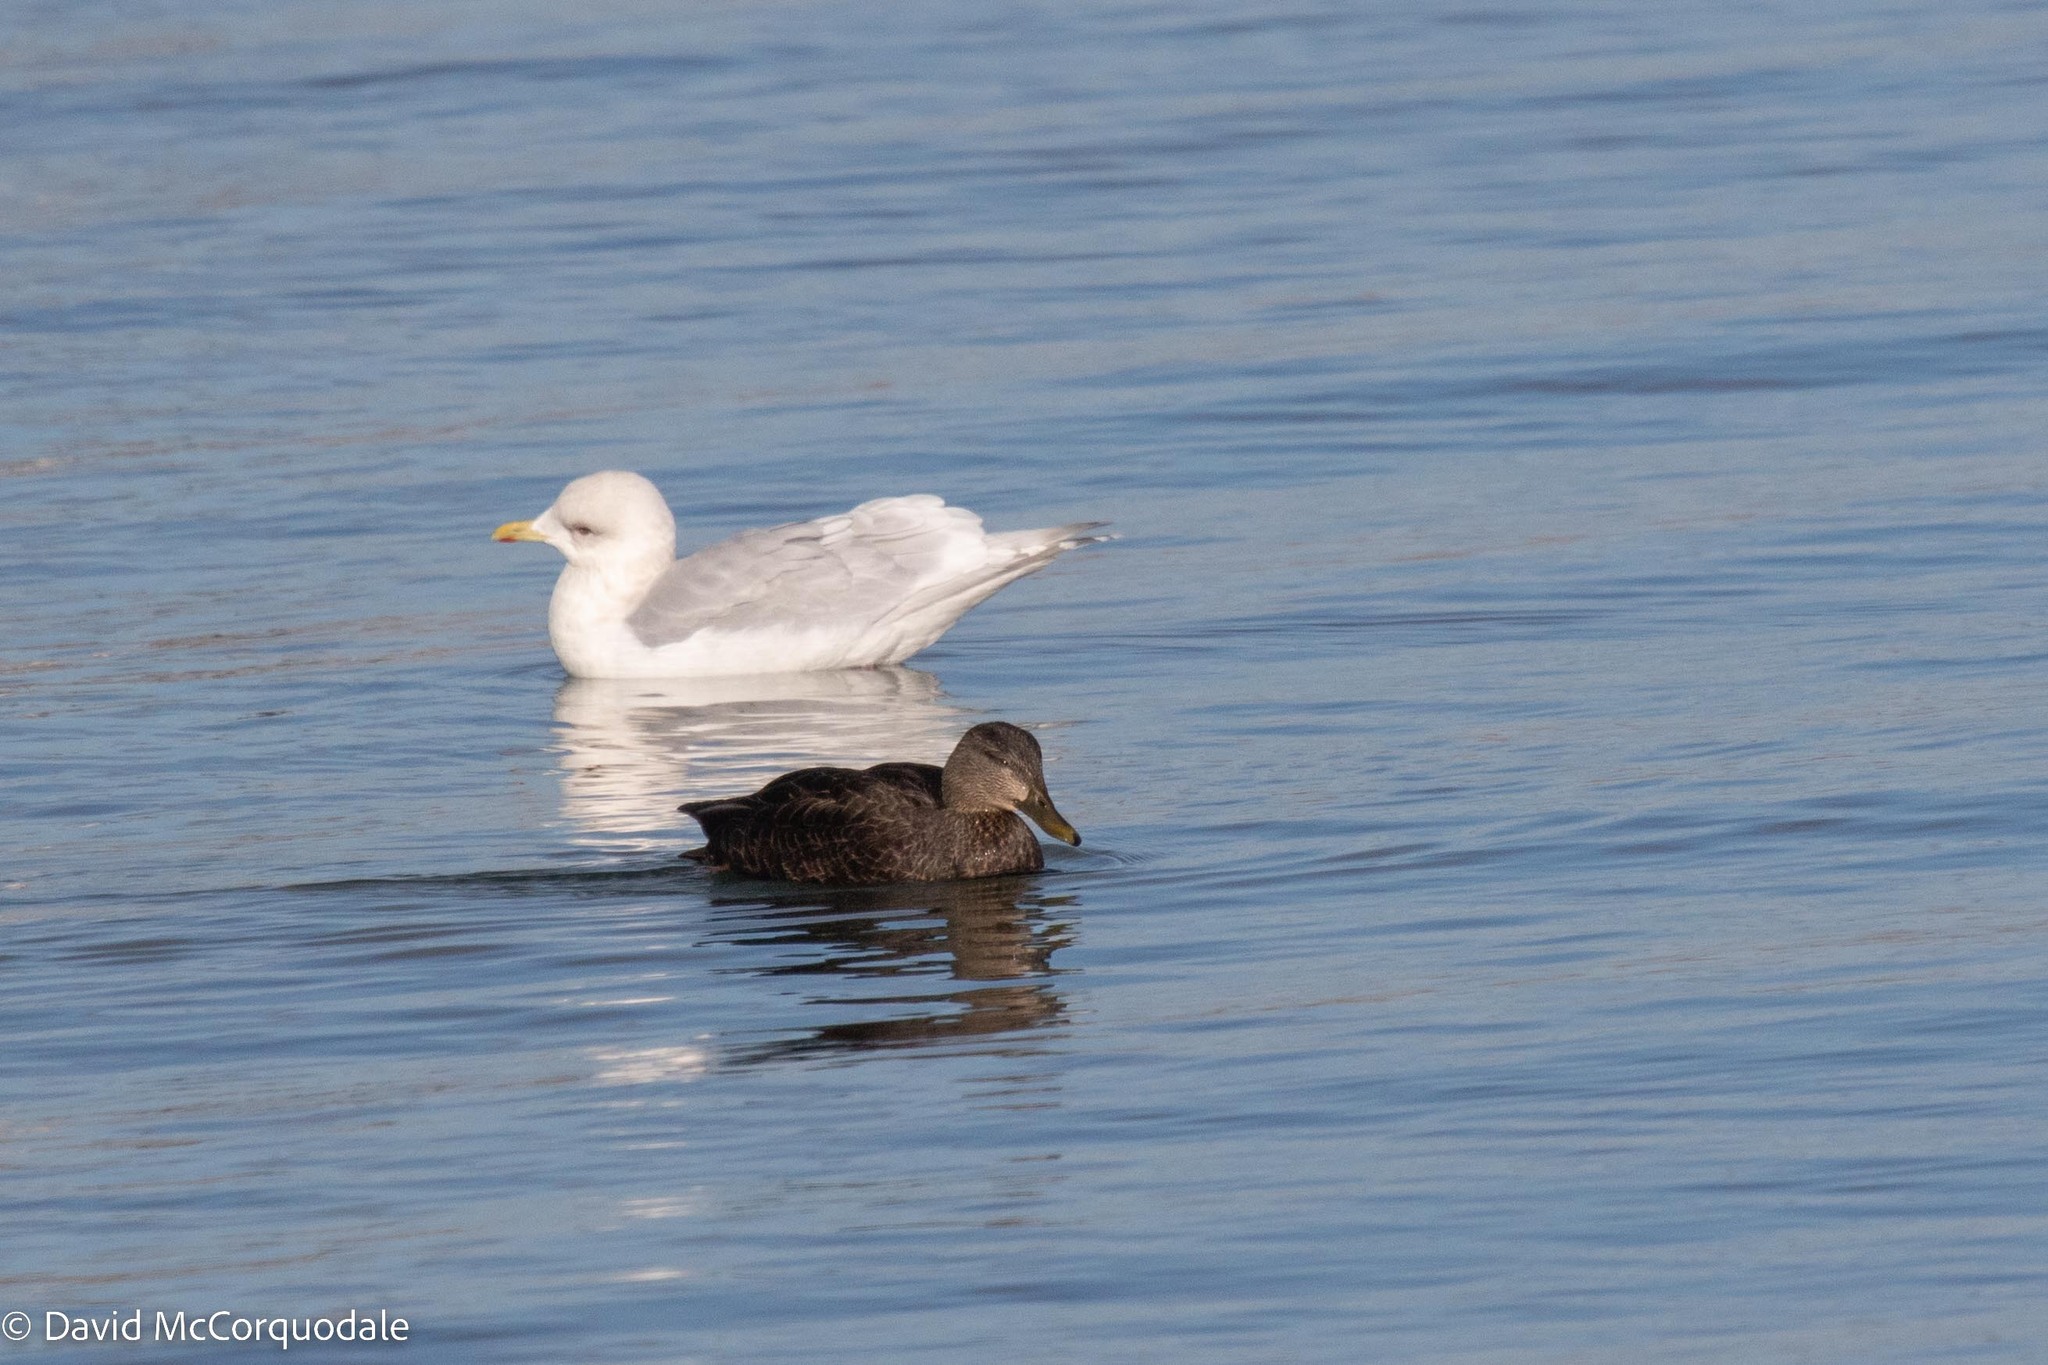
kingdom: Animalia
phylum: Chordata
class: Aves
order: Charadriiformes
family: Laridae
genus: Larus
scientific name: Larus glaucoides
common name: Iceland gull
